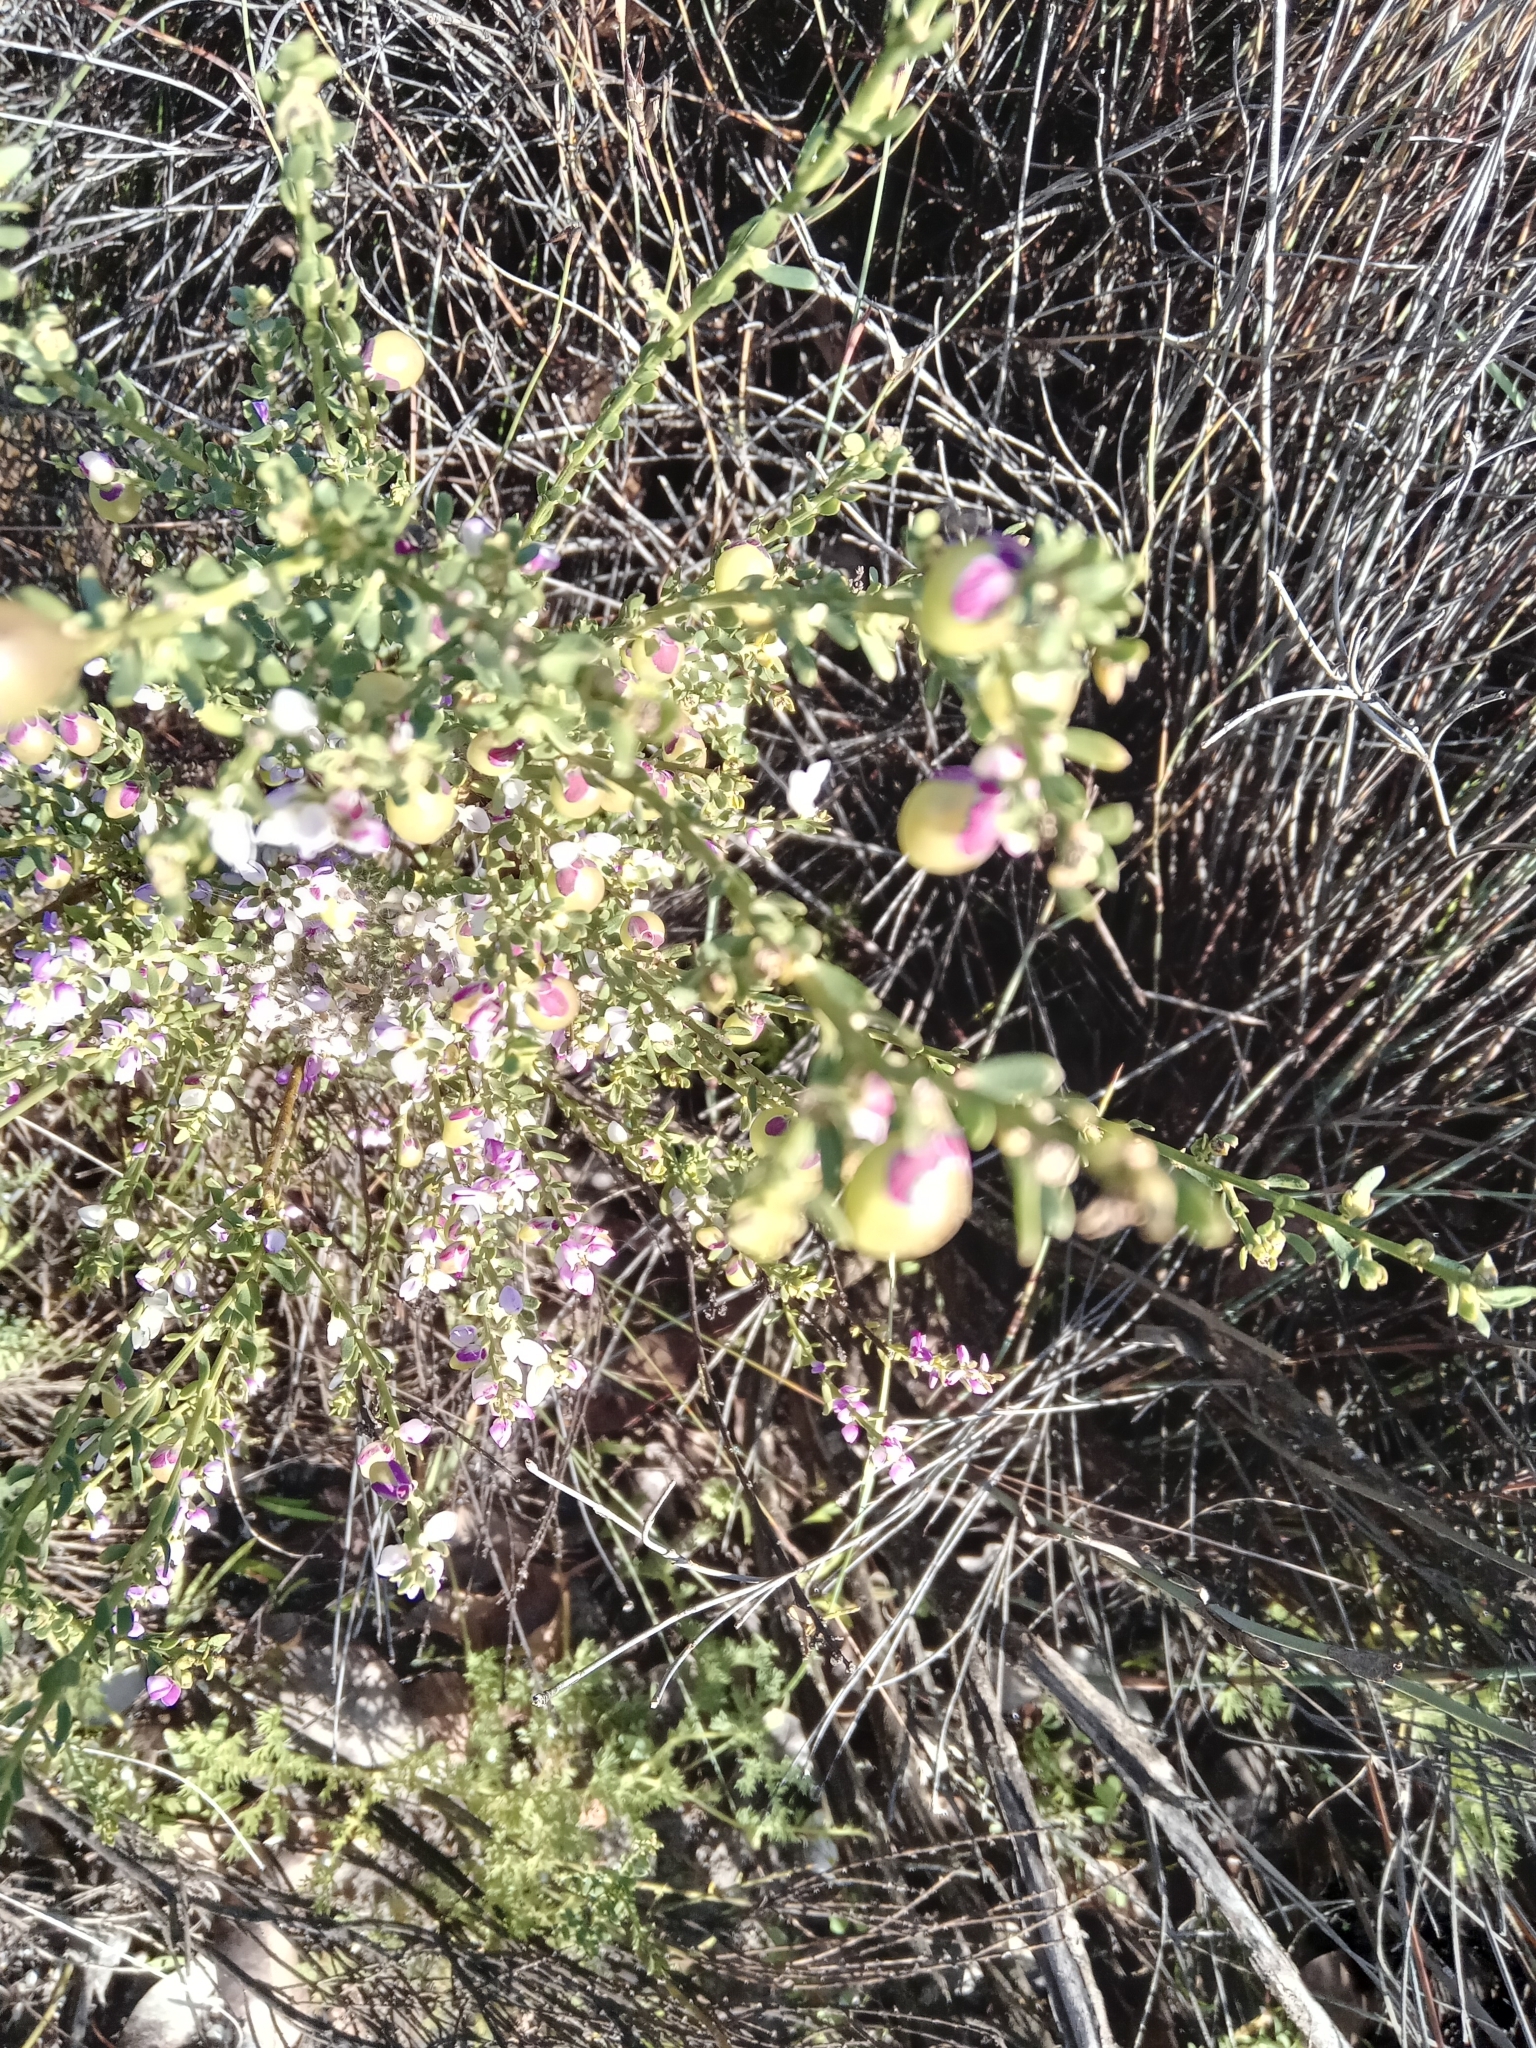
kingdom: Plantae
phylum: Tracheophyta
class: Magnoliopsida
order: Fabales
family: Polygalaceae
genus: Muraltia
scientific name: Muraltia spinosa
